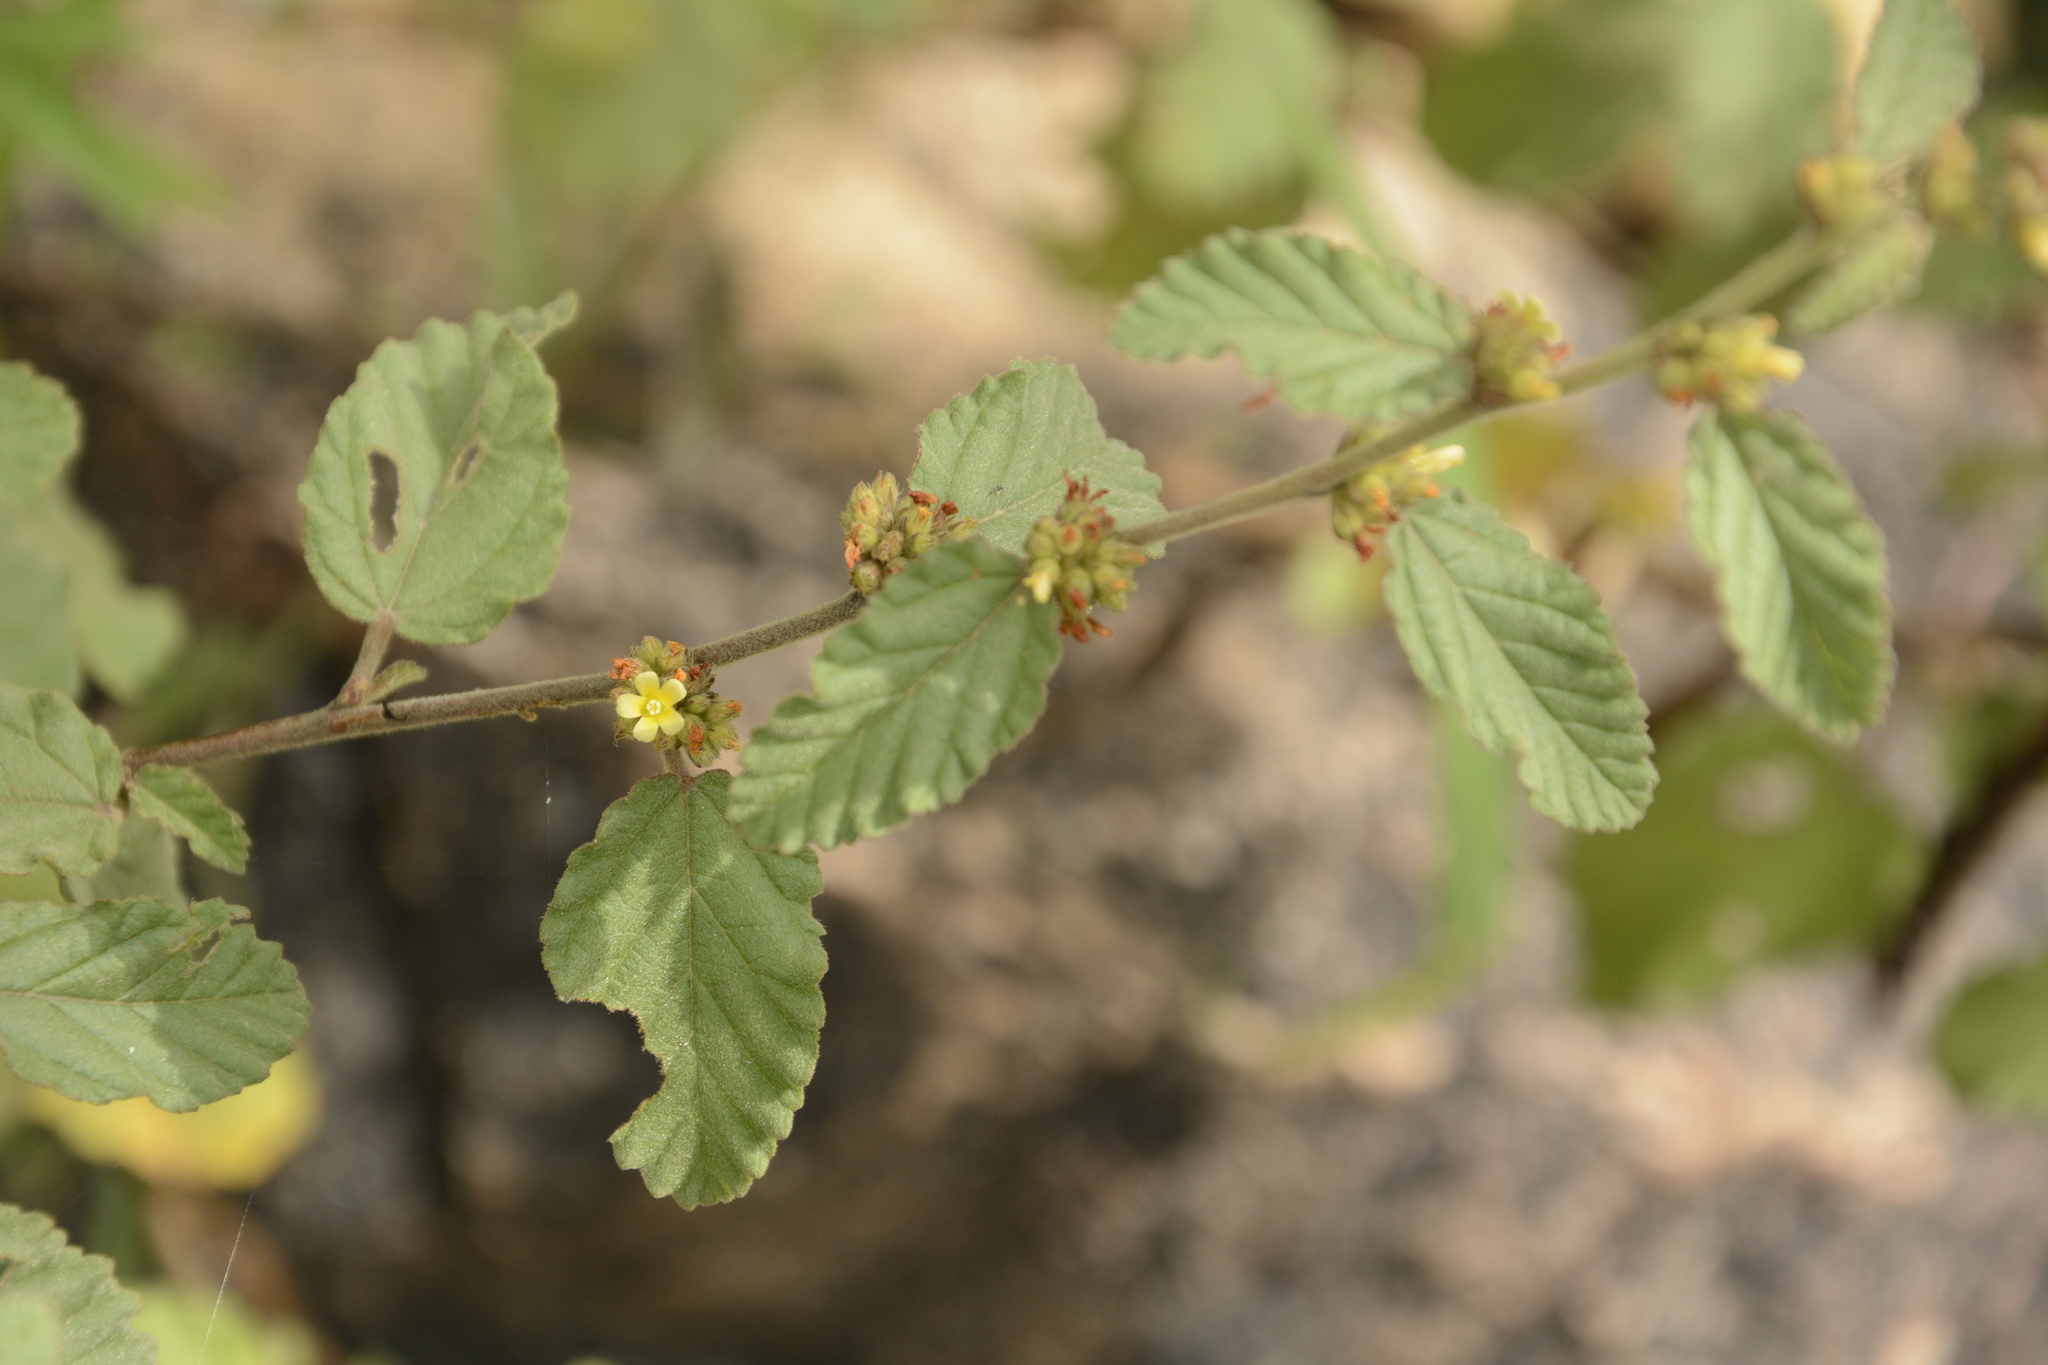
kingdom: Plantae
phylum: Tracheophyta
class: Magnoliopsida
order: Malvales
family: Malvaceae
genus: Waltheria
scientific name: Waltheria indica
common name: Leather-coat
